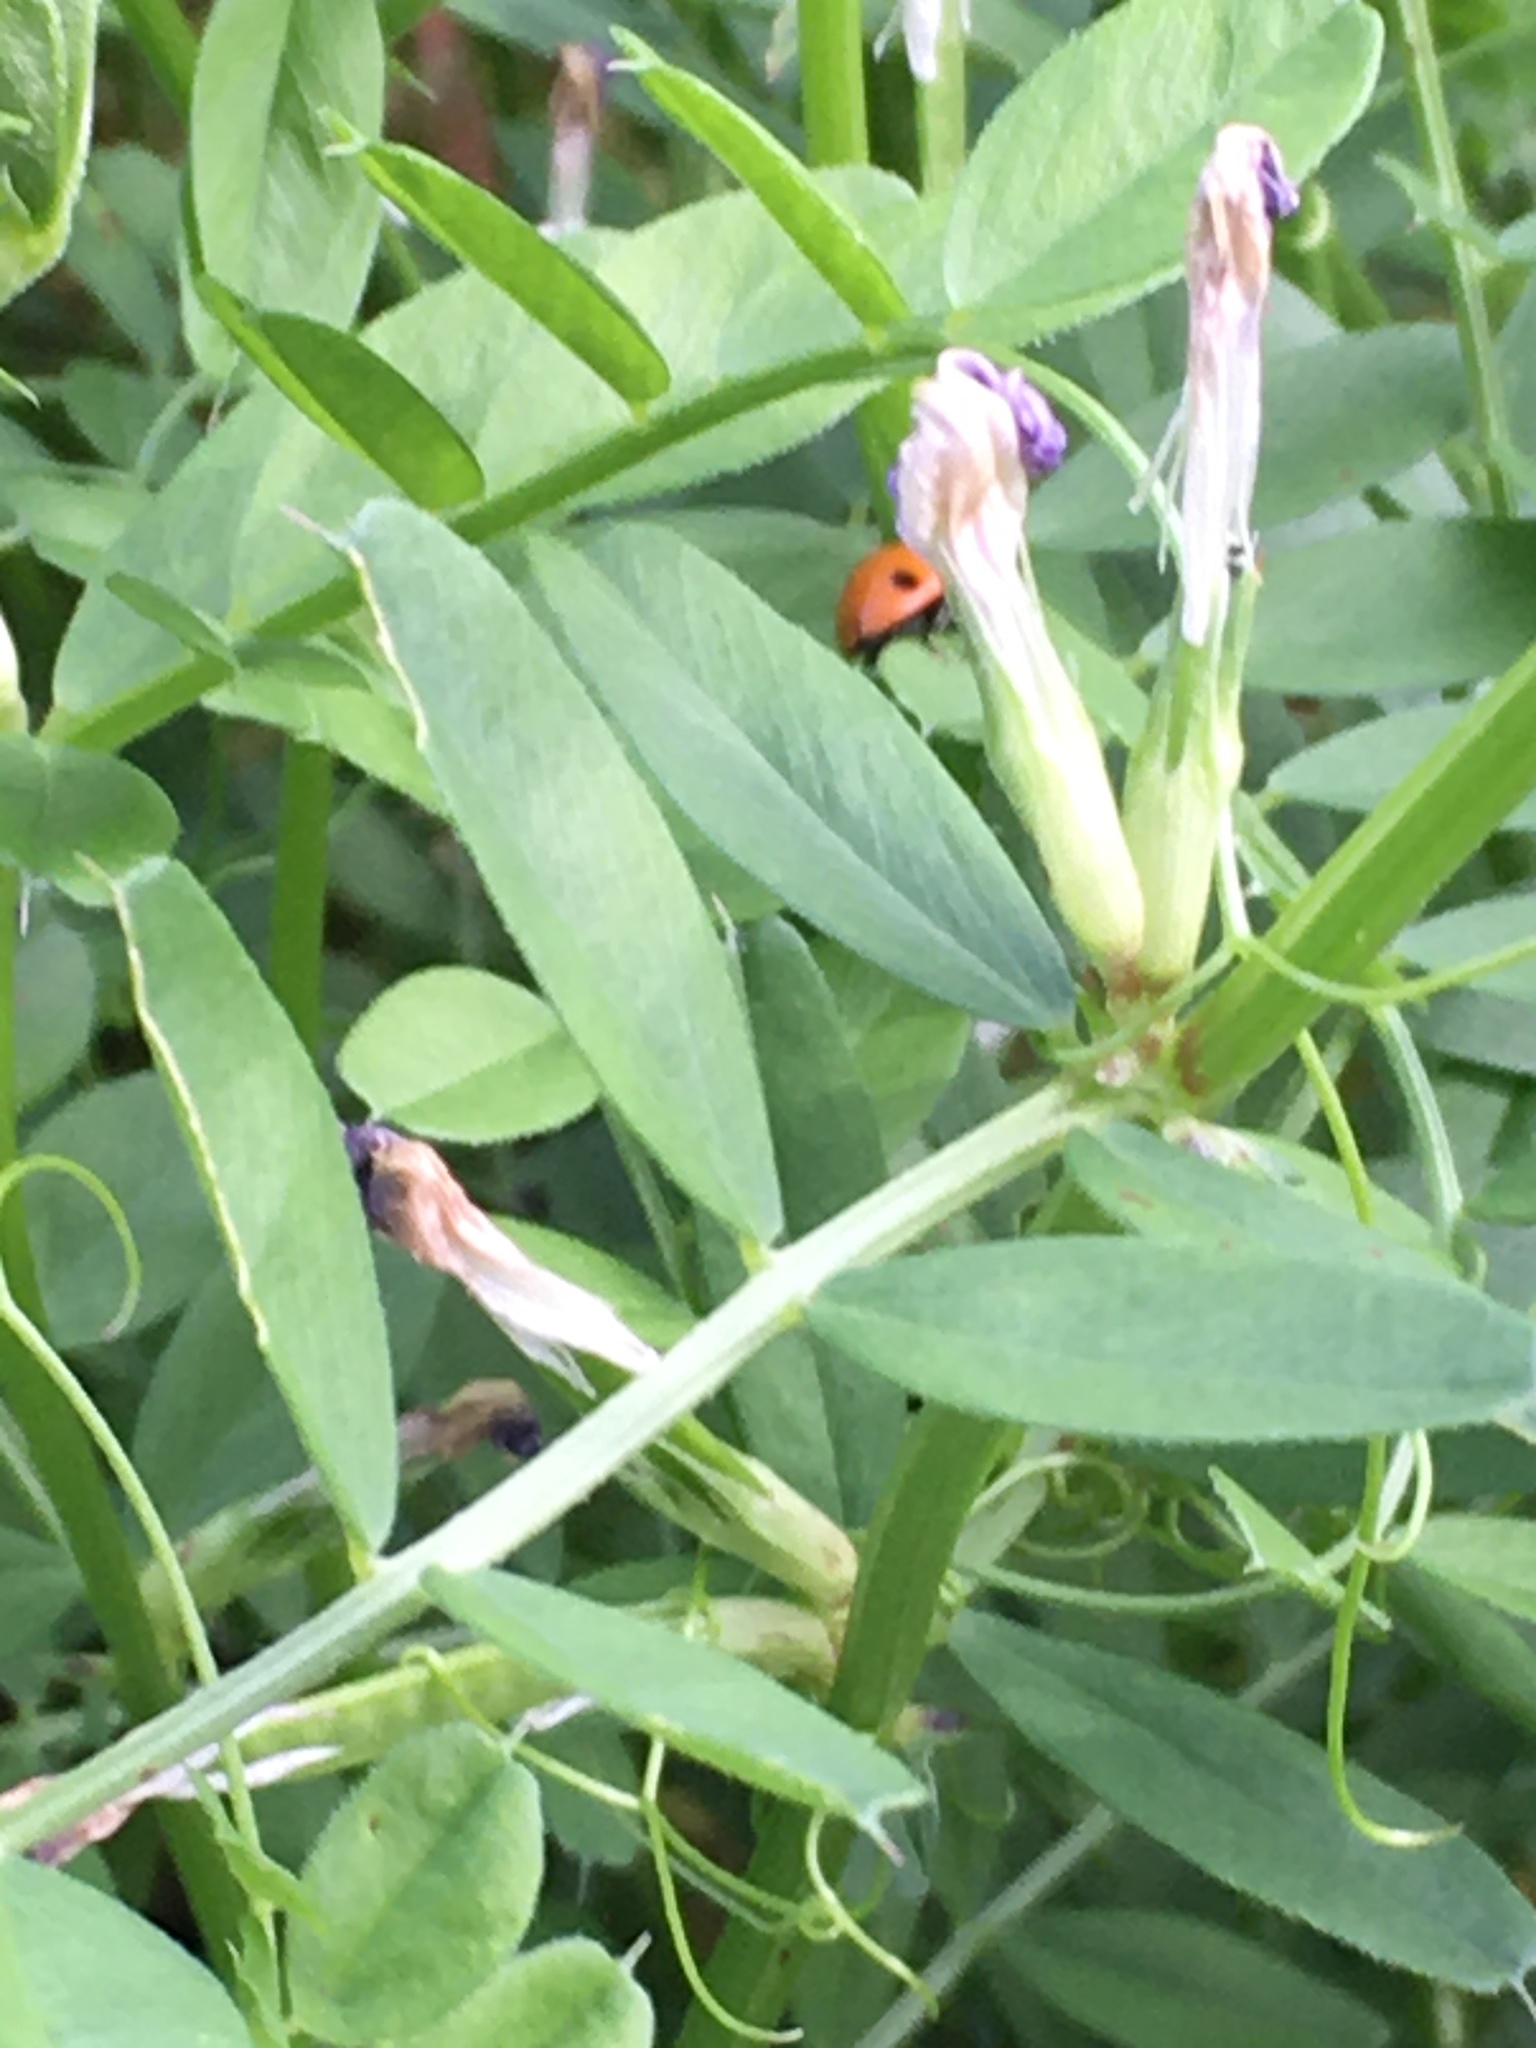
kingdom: Animalia
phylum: Arthropoda
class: Insecta
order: Coleoptera
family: Coccinellidae
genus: Coccinella
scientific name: Coccinella septempunctata
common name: Sevenspotted lady beetle
